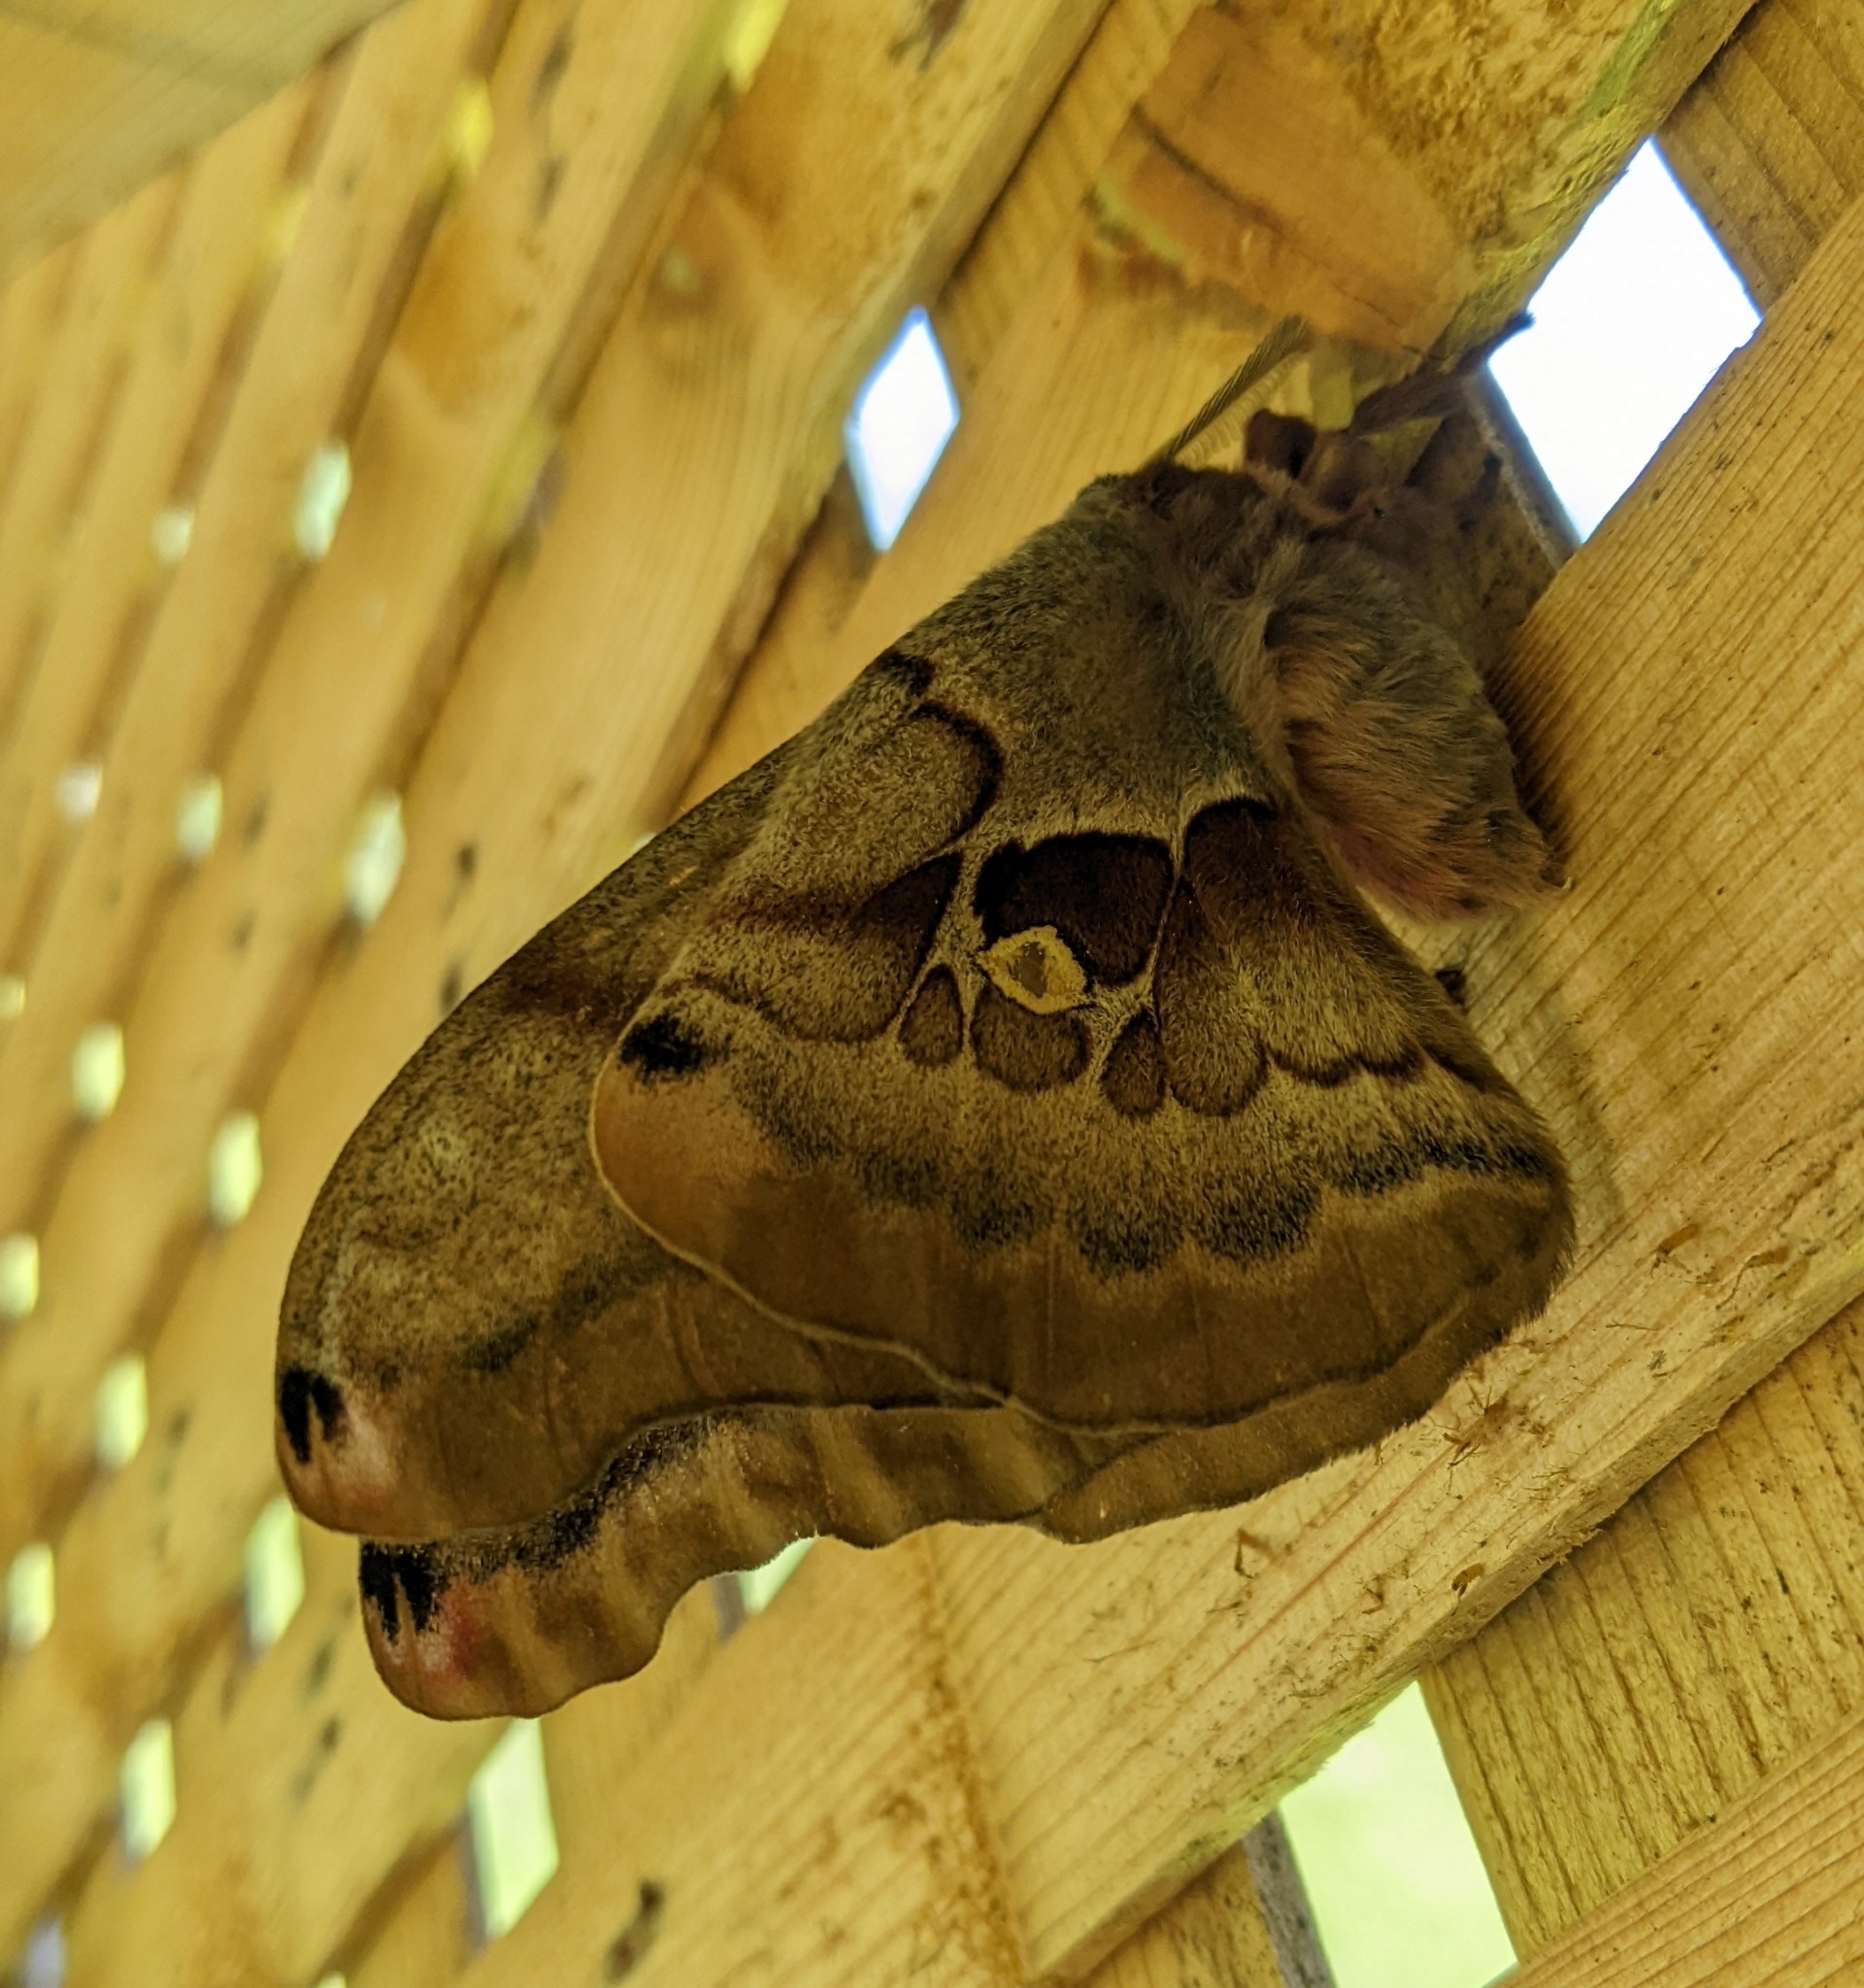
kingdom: Animalia
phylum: Arthropoda
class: Insecta
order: Lepidoptera
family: Saturniidae
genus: Antheraea
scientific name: Antheraea polyphemus
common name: Polyphemus moth
